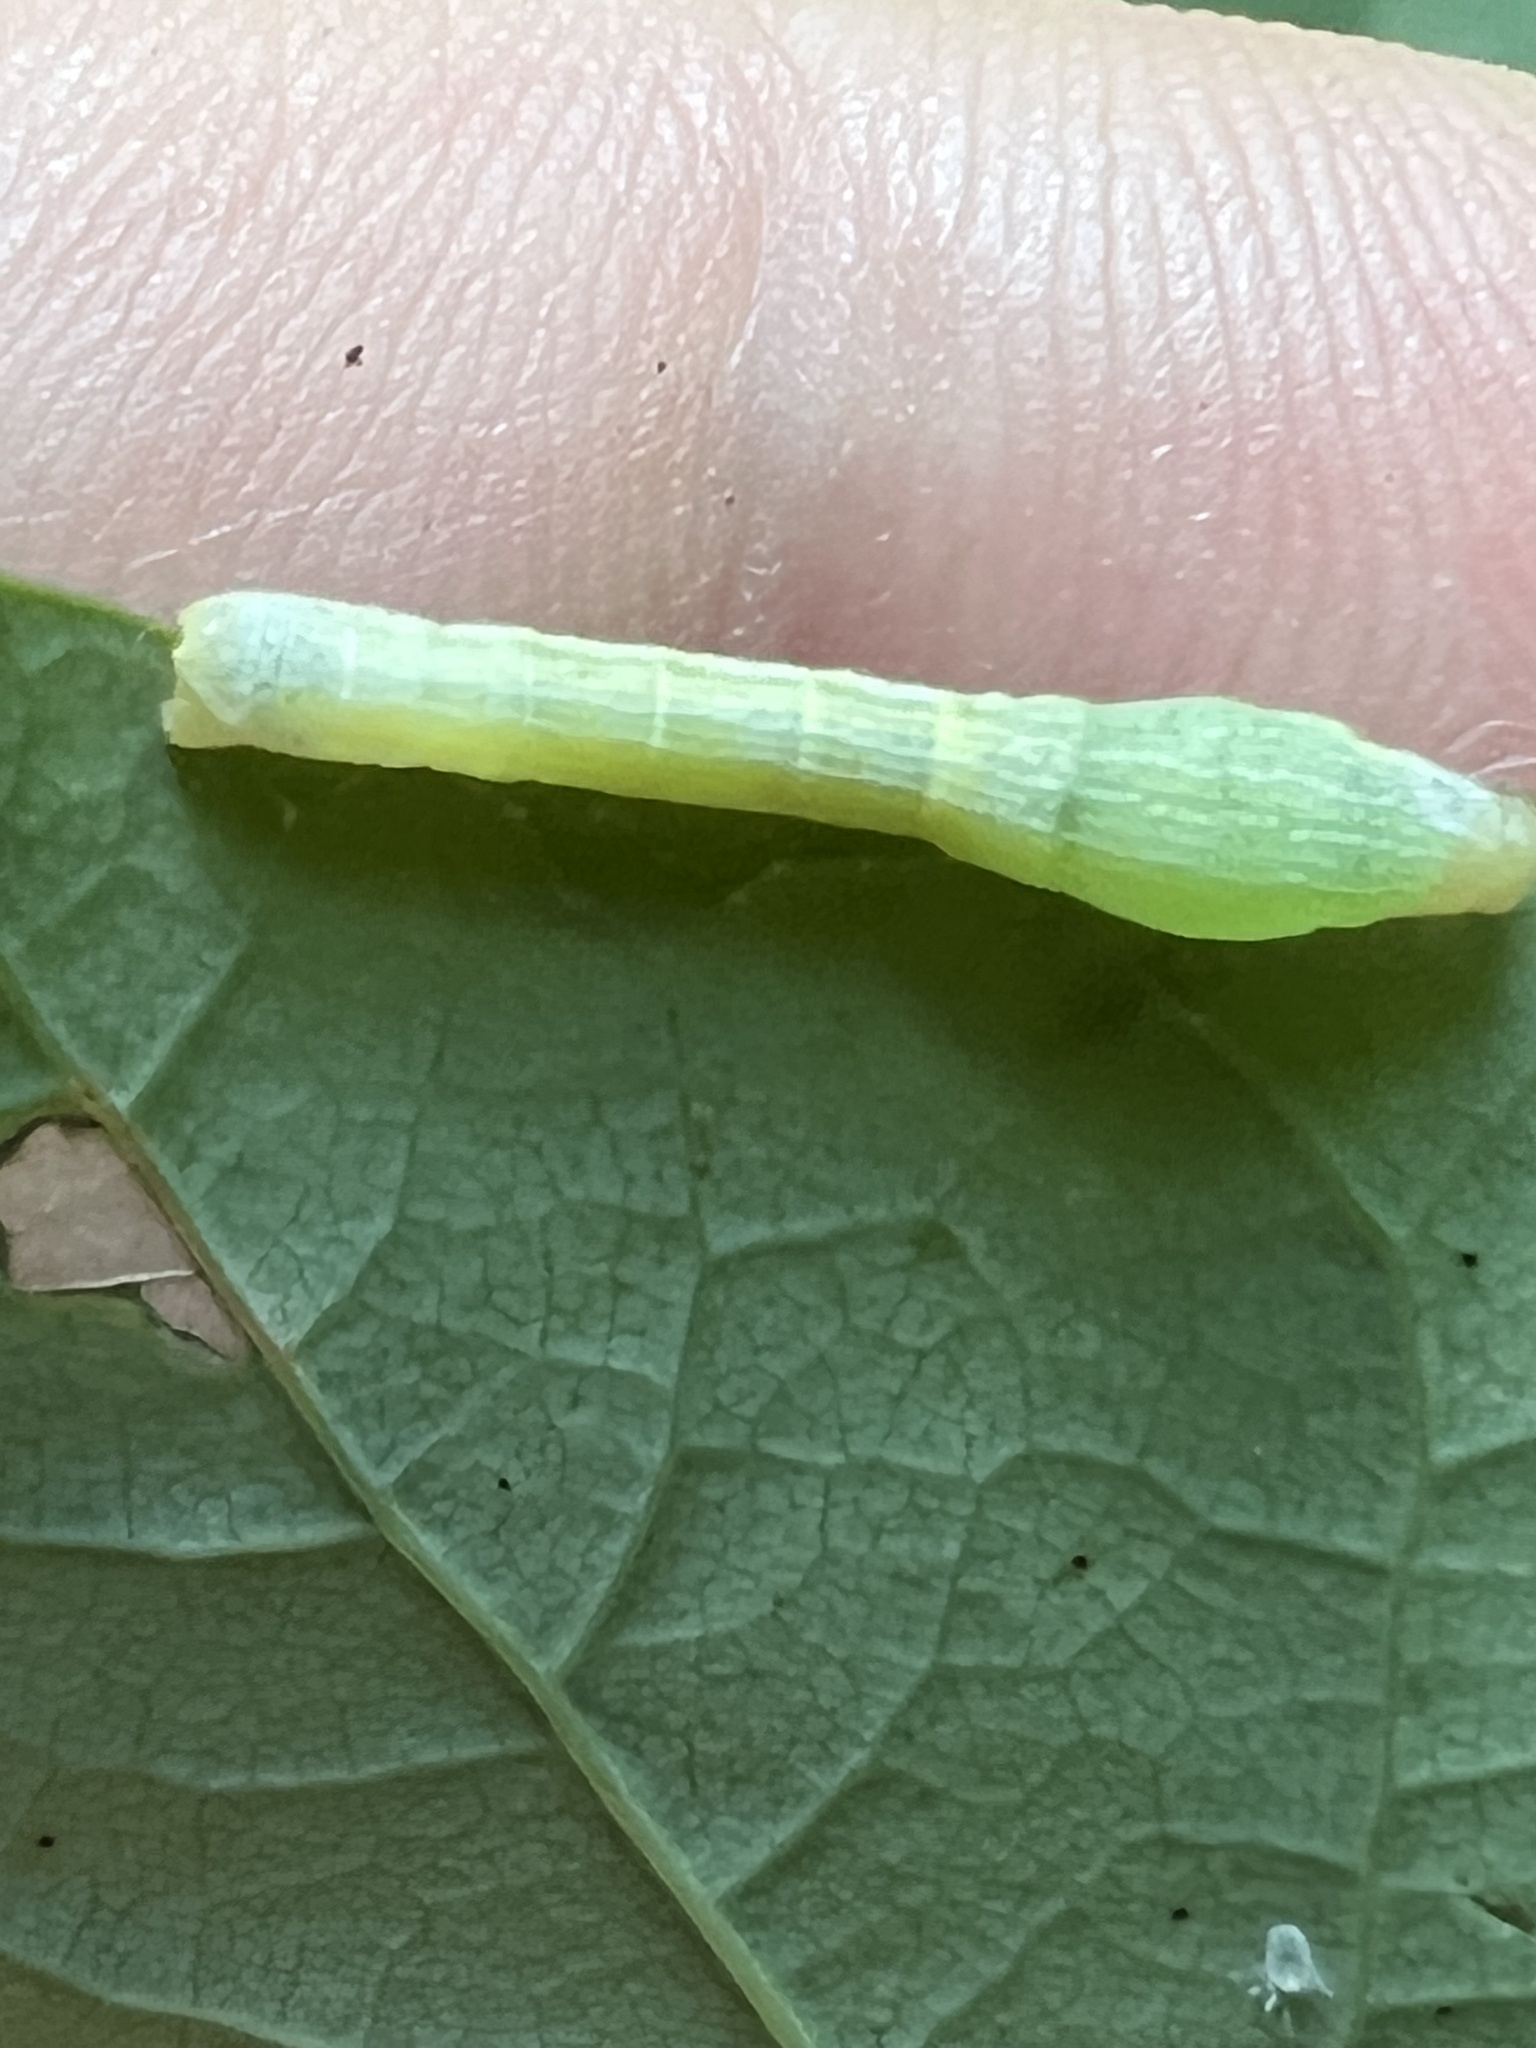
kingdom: Animalia
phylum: Arthropoda
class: Insecta
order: Lepidoptera
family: Geometridae
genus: Epimecis
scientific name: Epimecis hortaria
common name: Tulip-tree beauty
